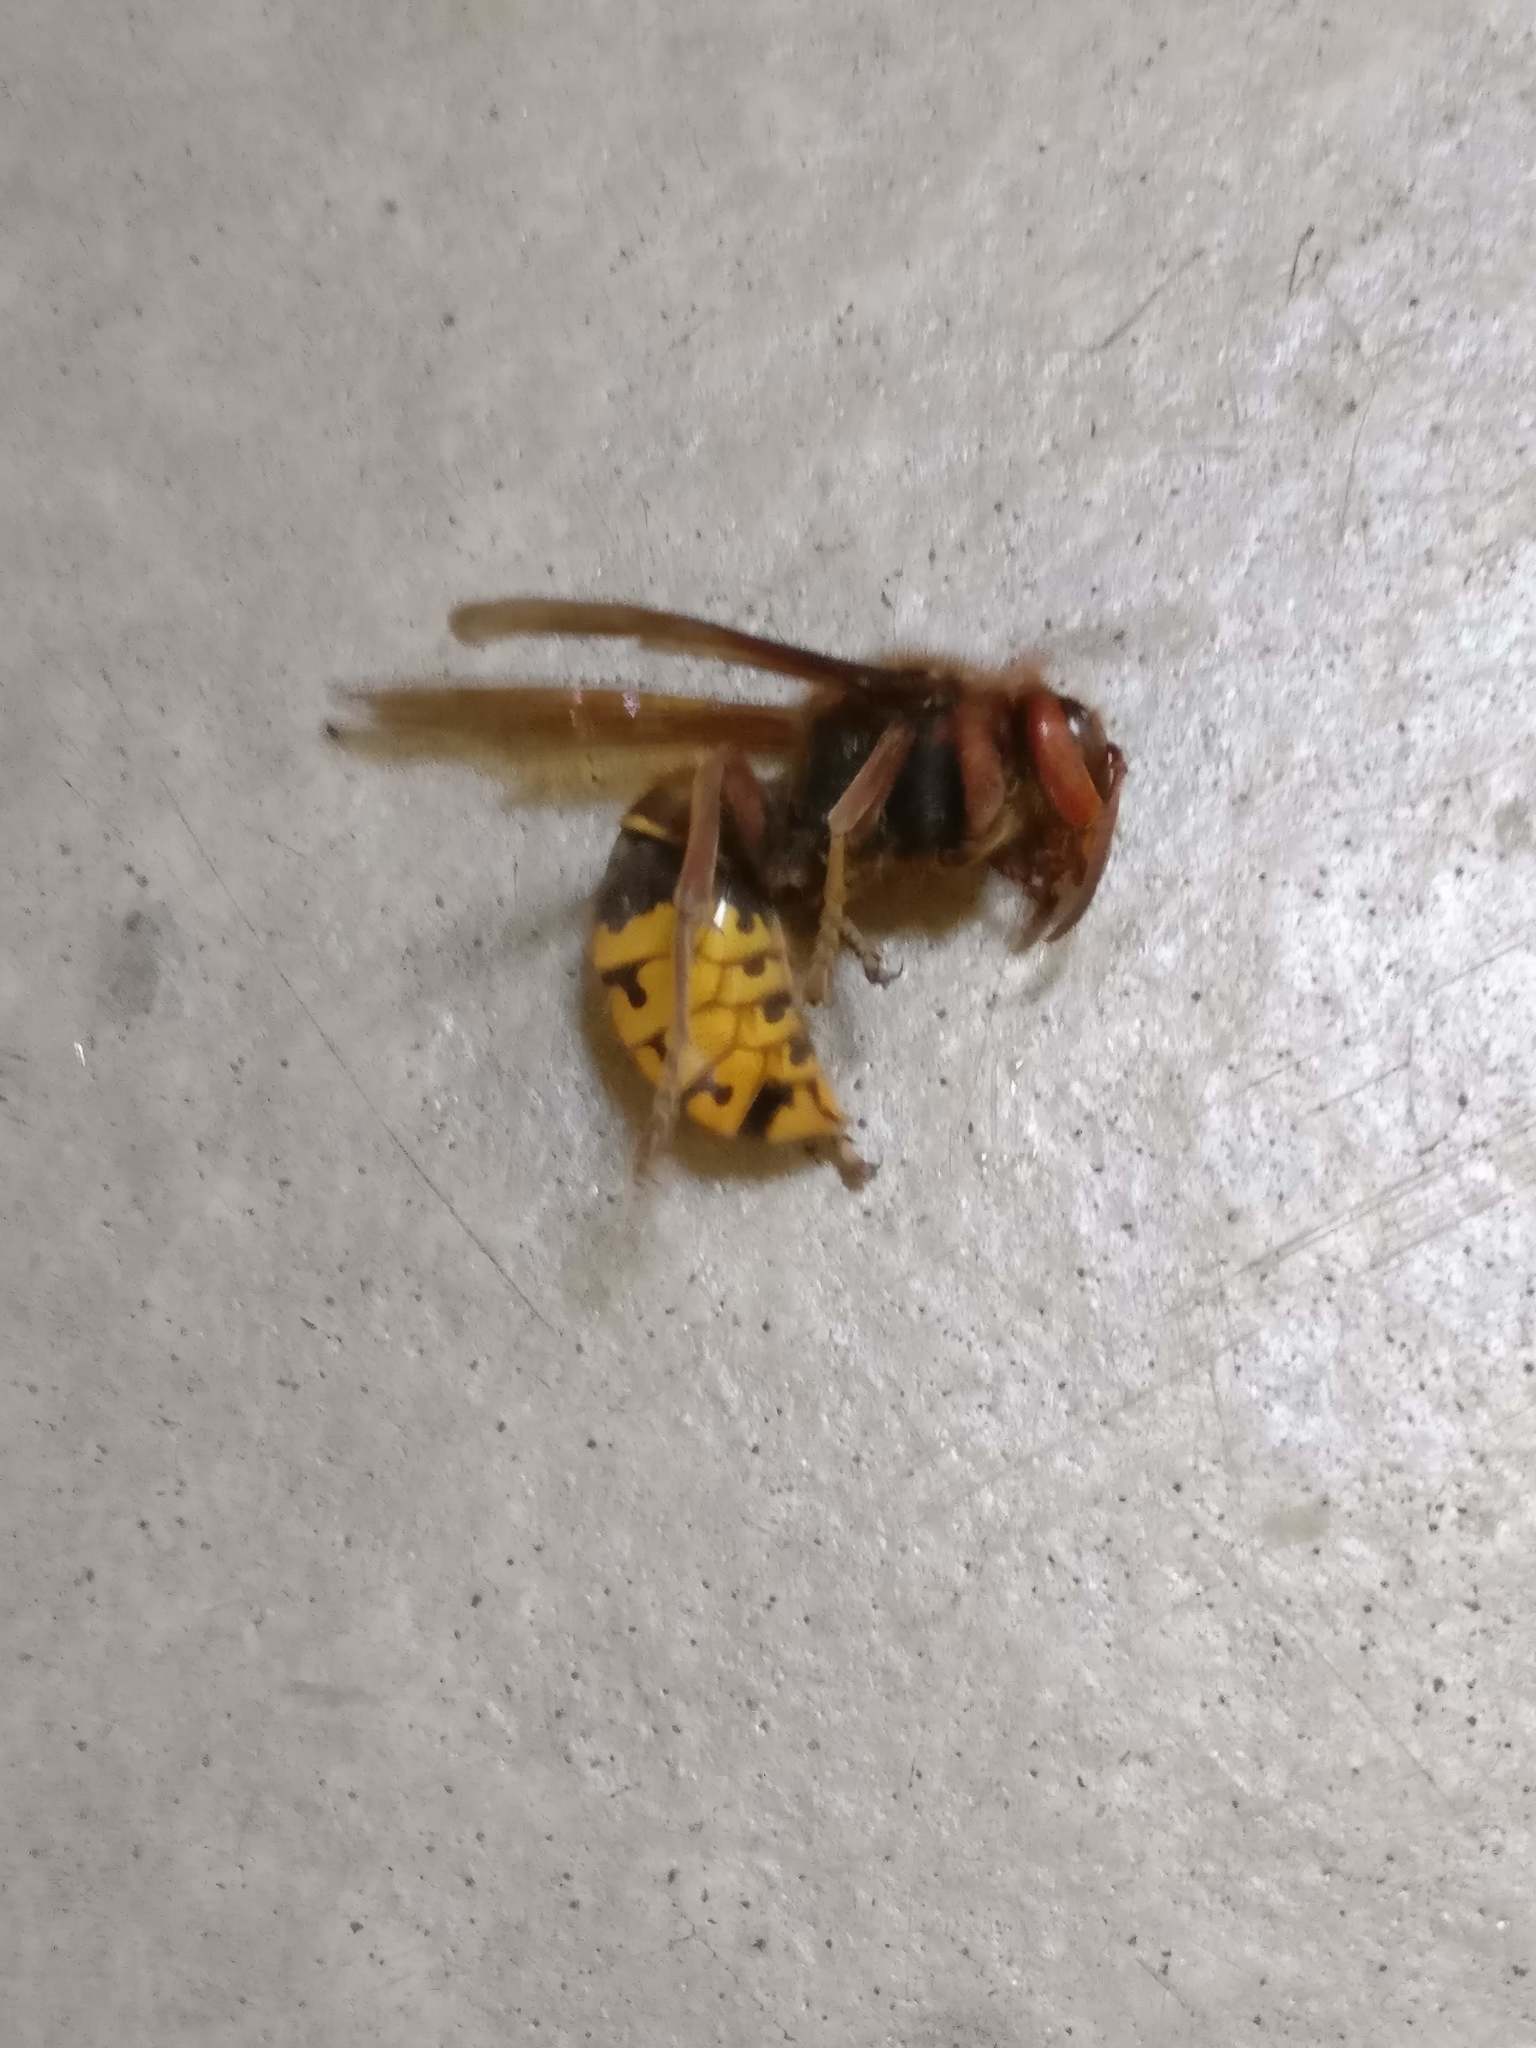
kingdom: Animalia
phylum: Arthropoda
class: Insecta
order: Hymenoptera
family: Vespidae
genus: Vespa
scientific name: Vespa crabro
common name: Hornet
